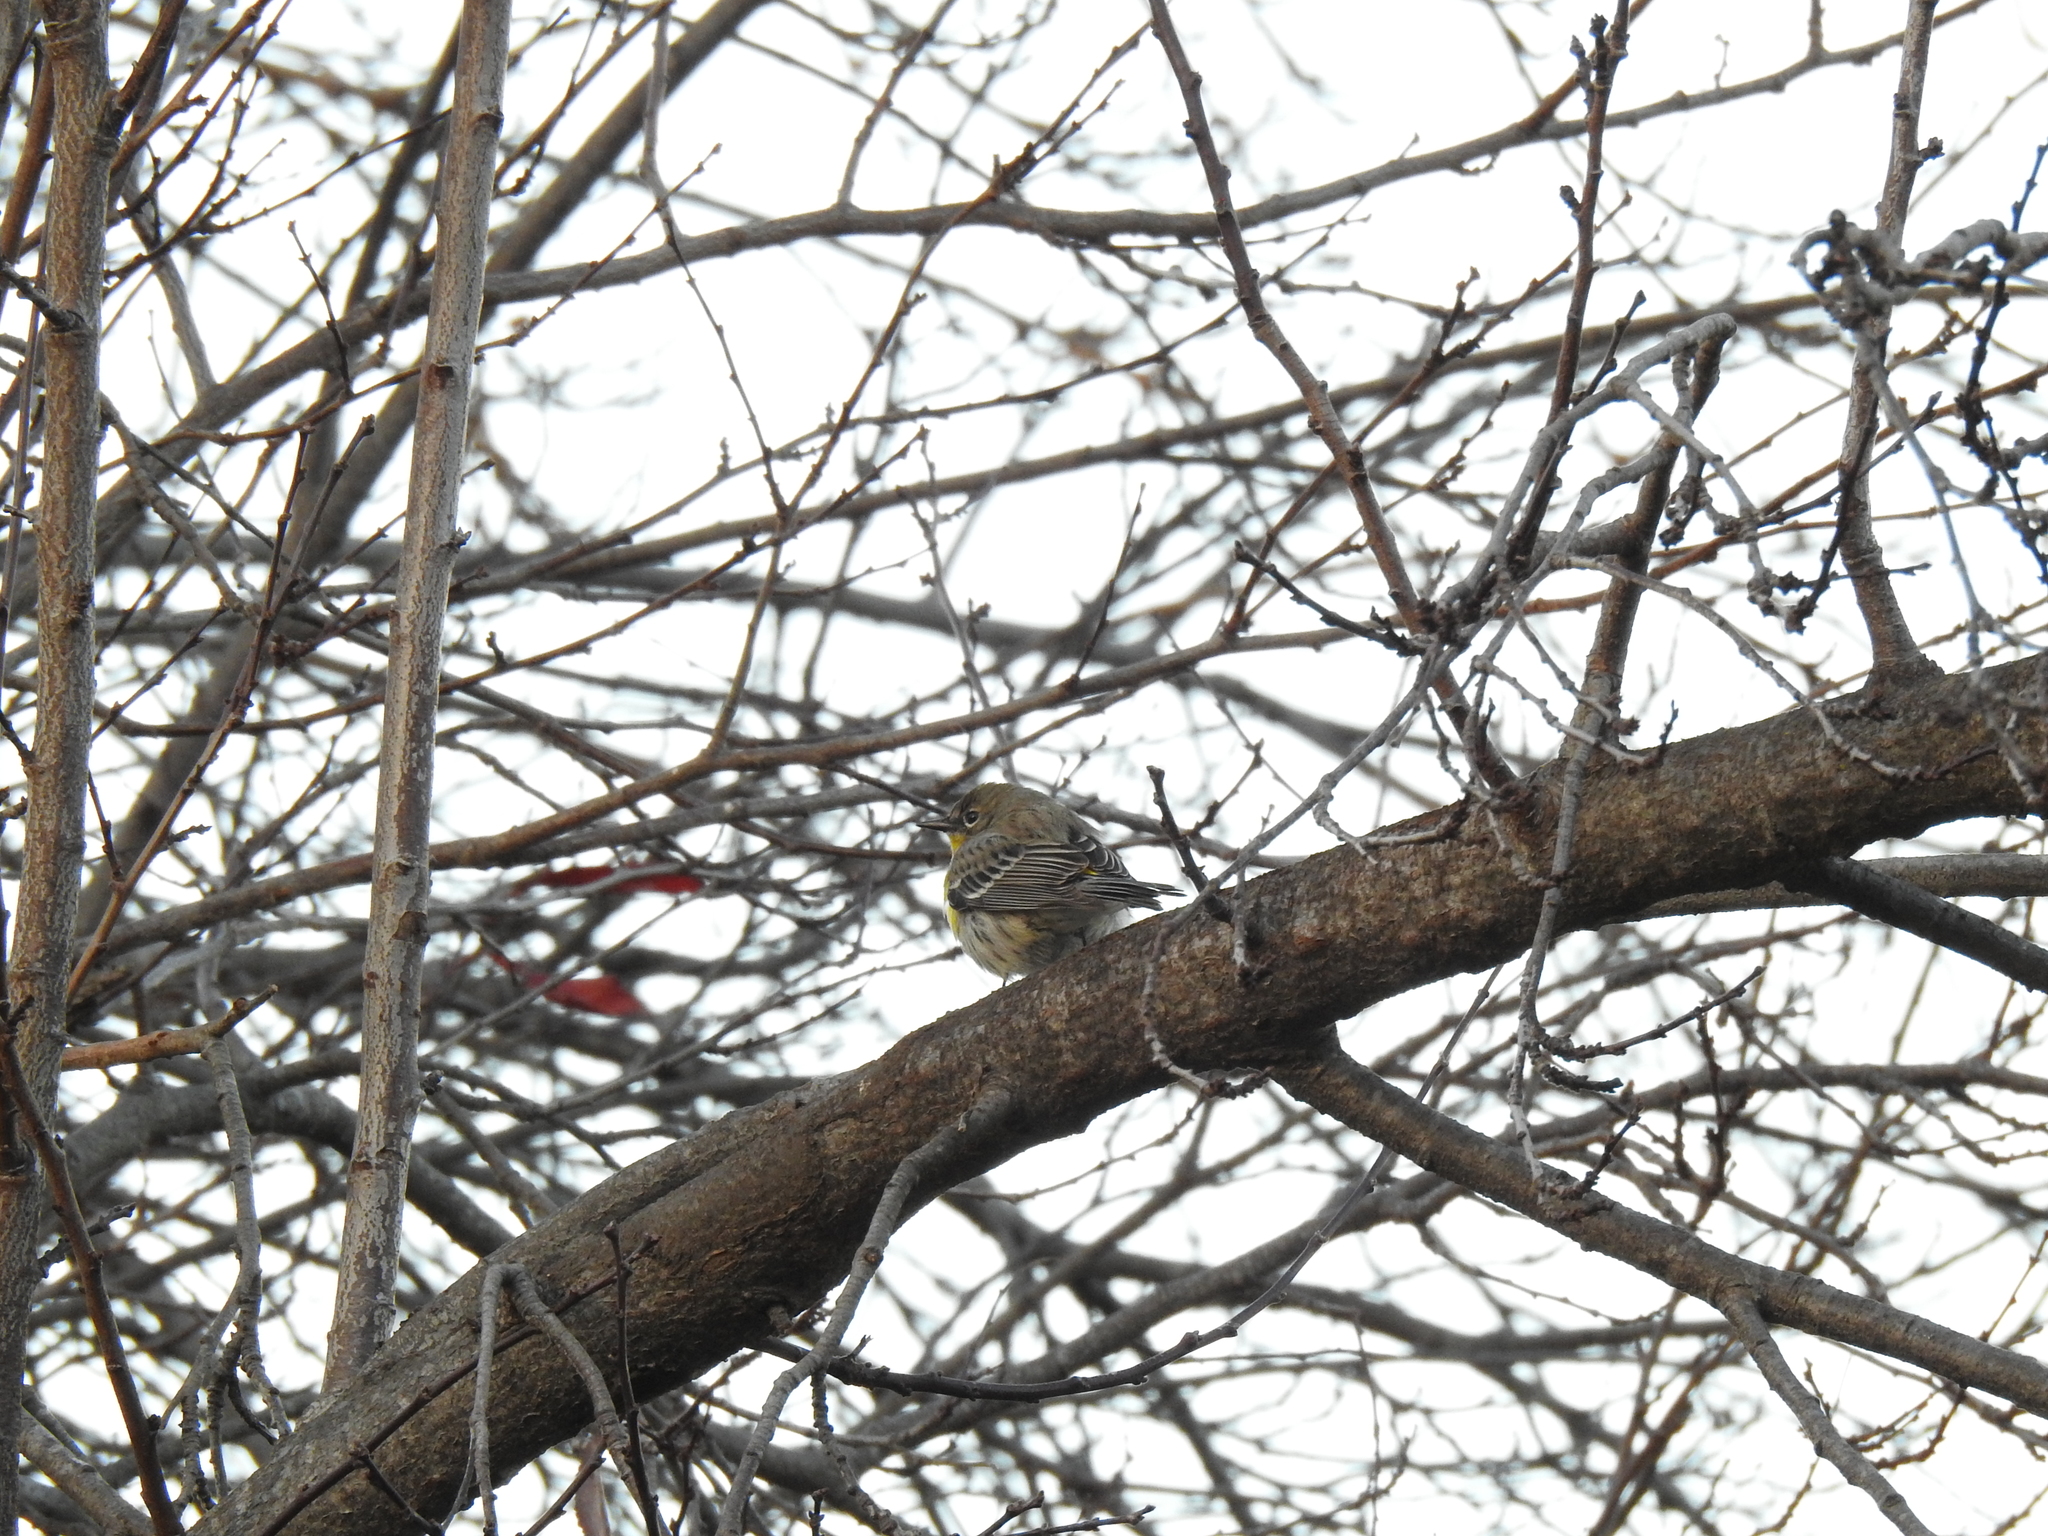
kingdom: Animalia
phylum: Chordata
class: Aves
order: Passeriformes
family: Parulidae
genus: Setophaga
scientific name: Setophaga coronata
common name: Myrtle warbler
